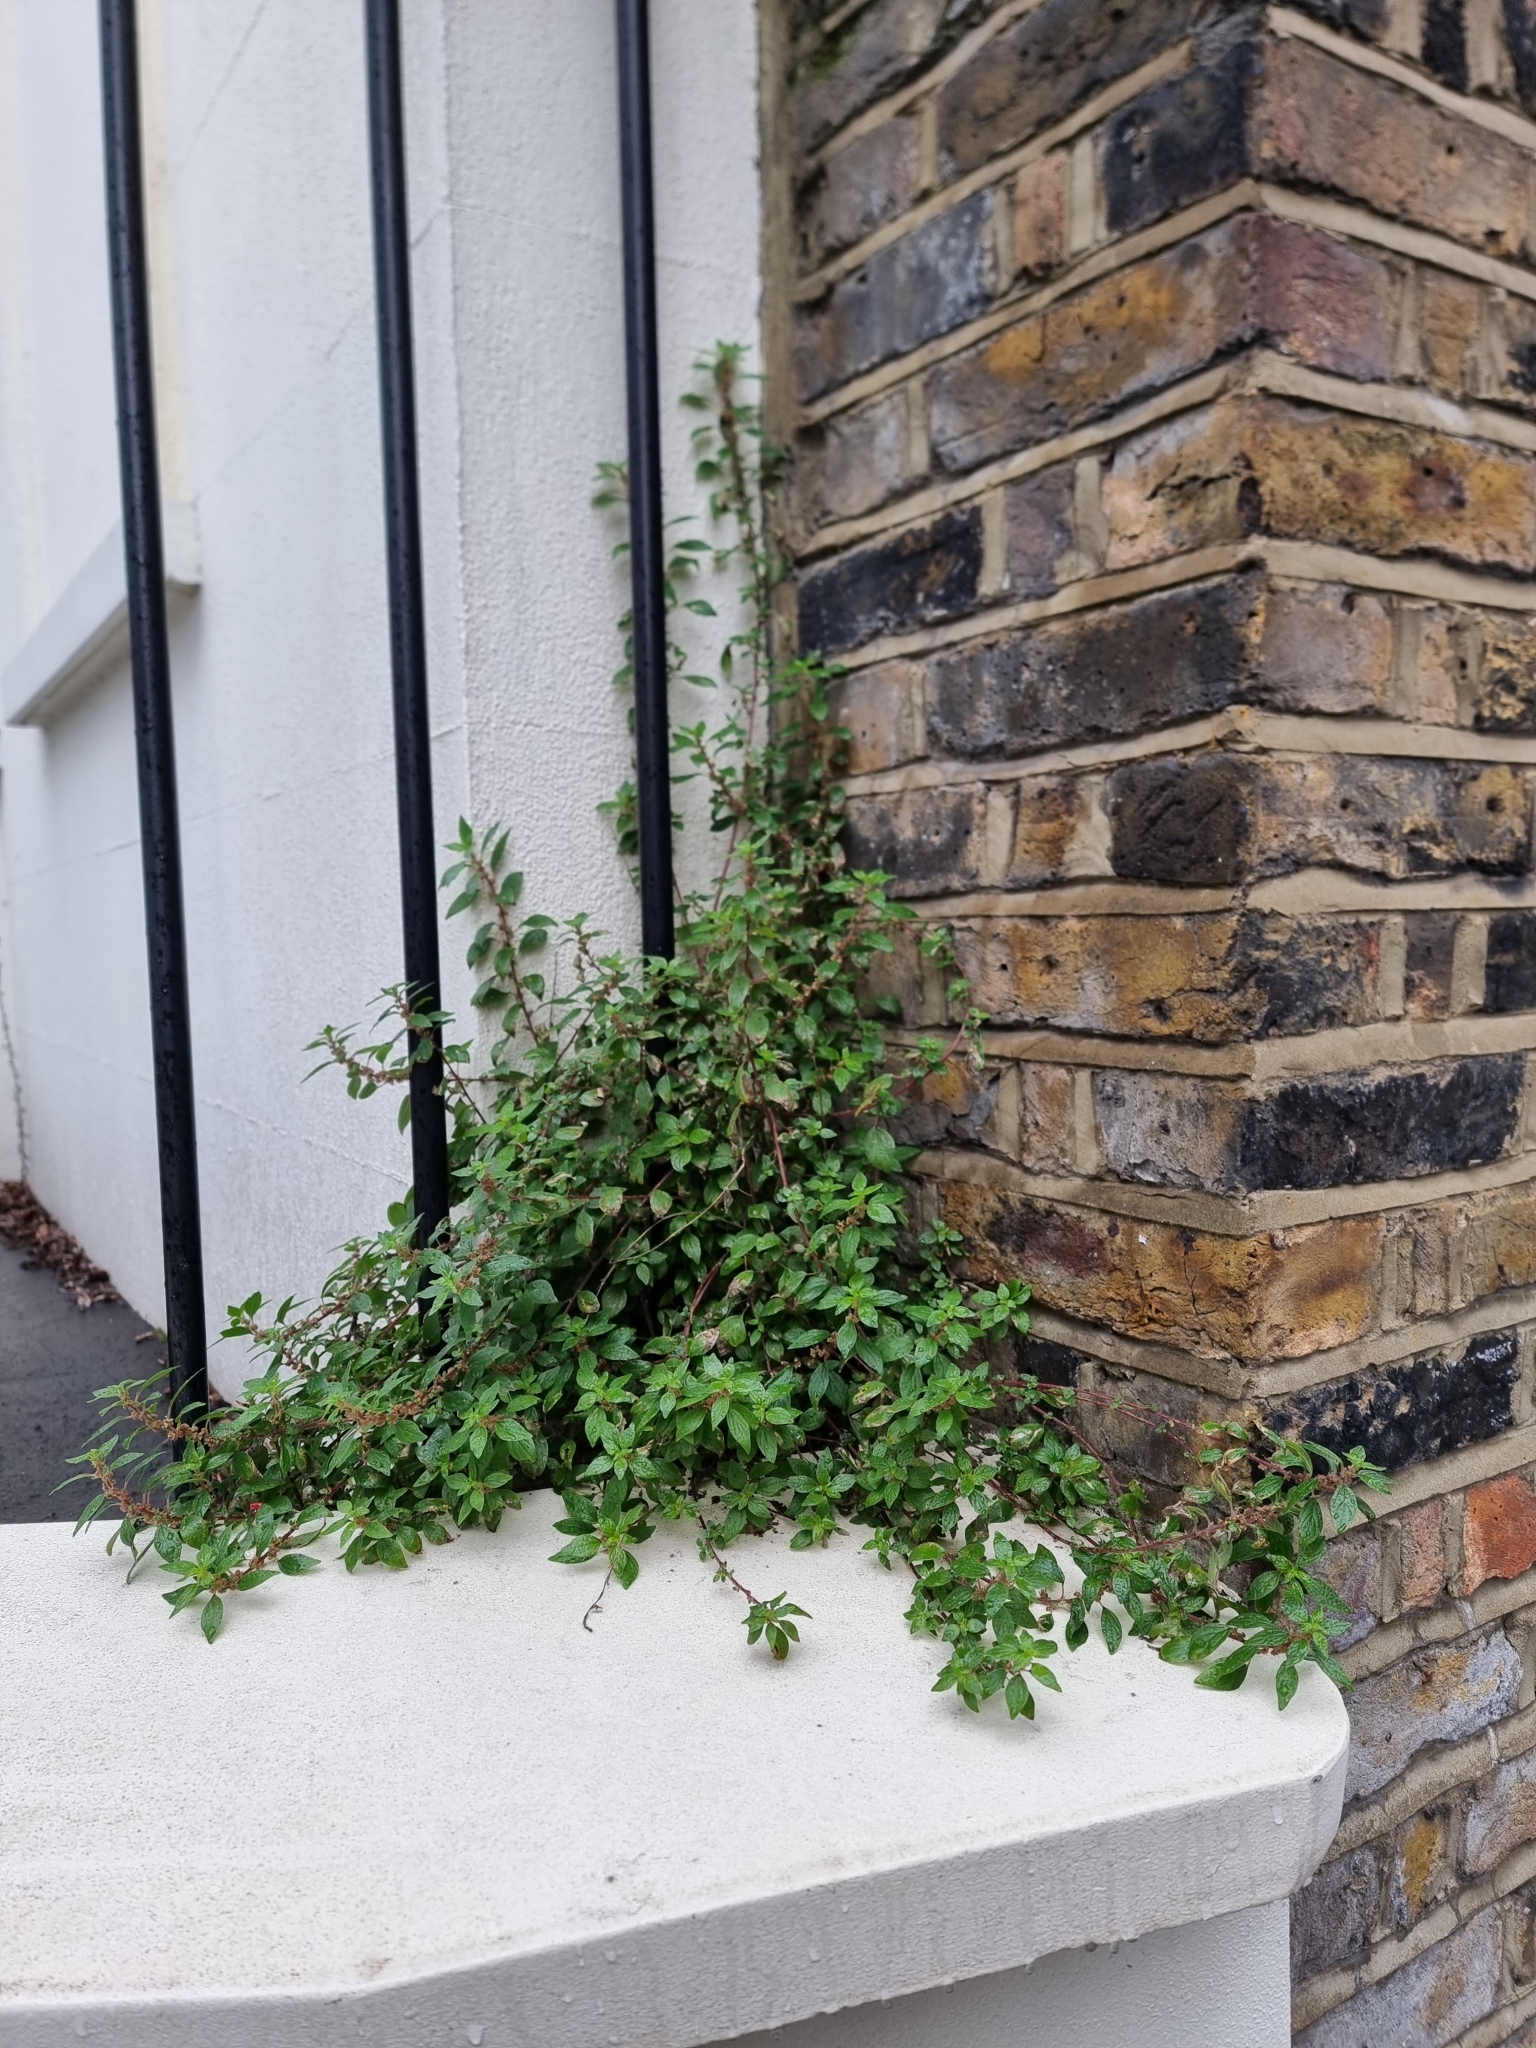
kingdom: Plantae
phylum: Tracheophyta
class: Magnoliopsida
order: Rosales
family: Urticaceae
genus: Parietaria
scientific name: Parietaria judaica
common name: Pellitory-of-the-wall
